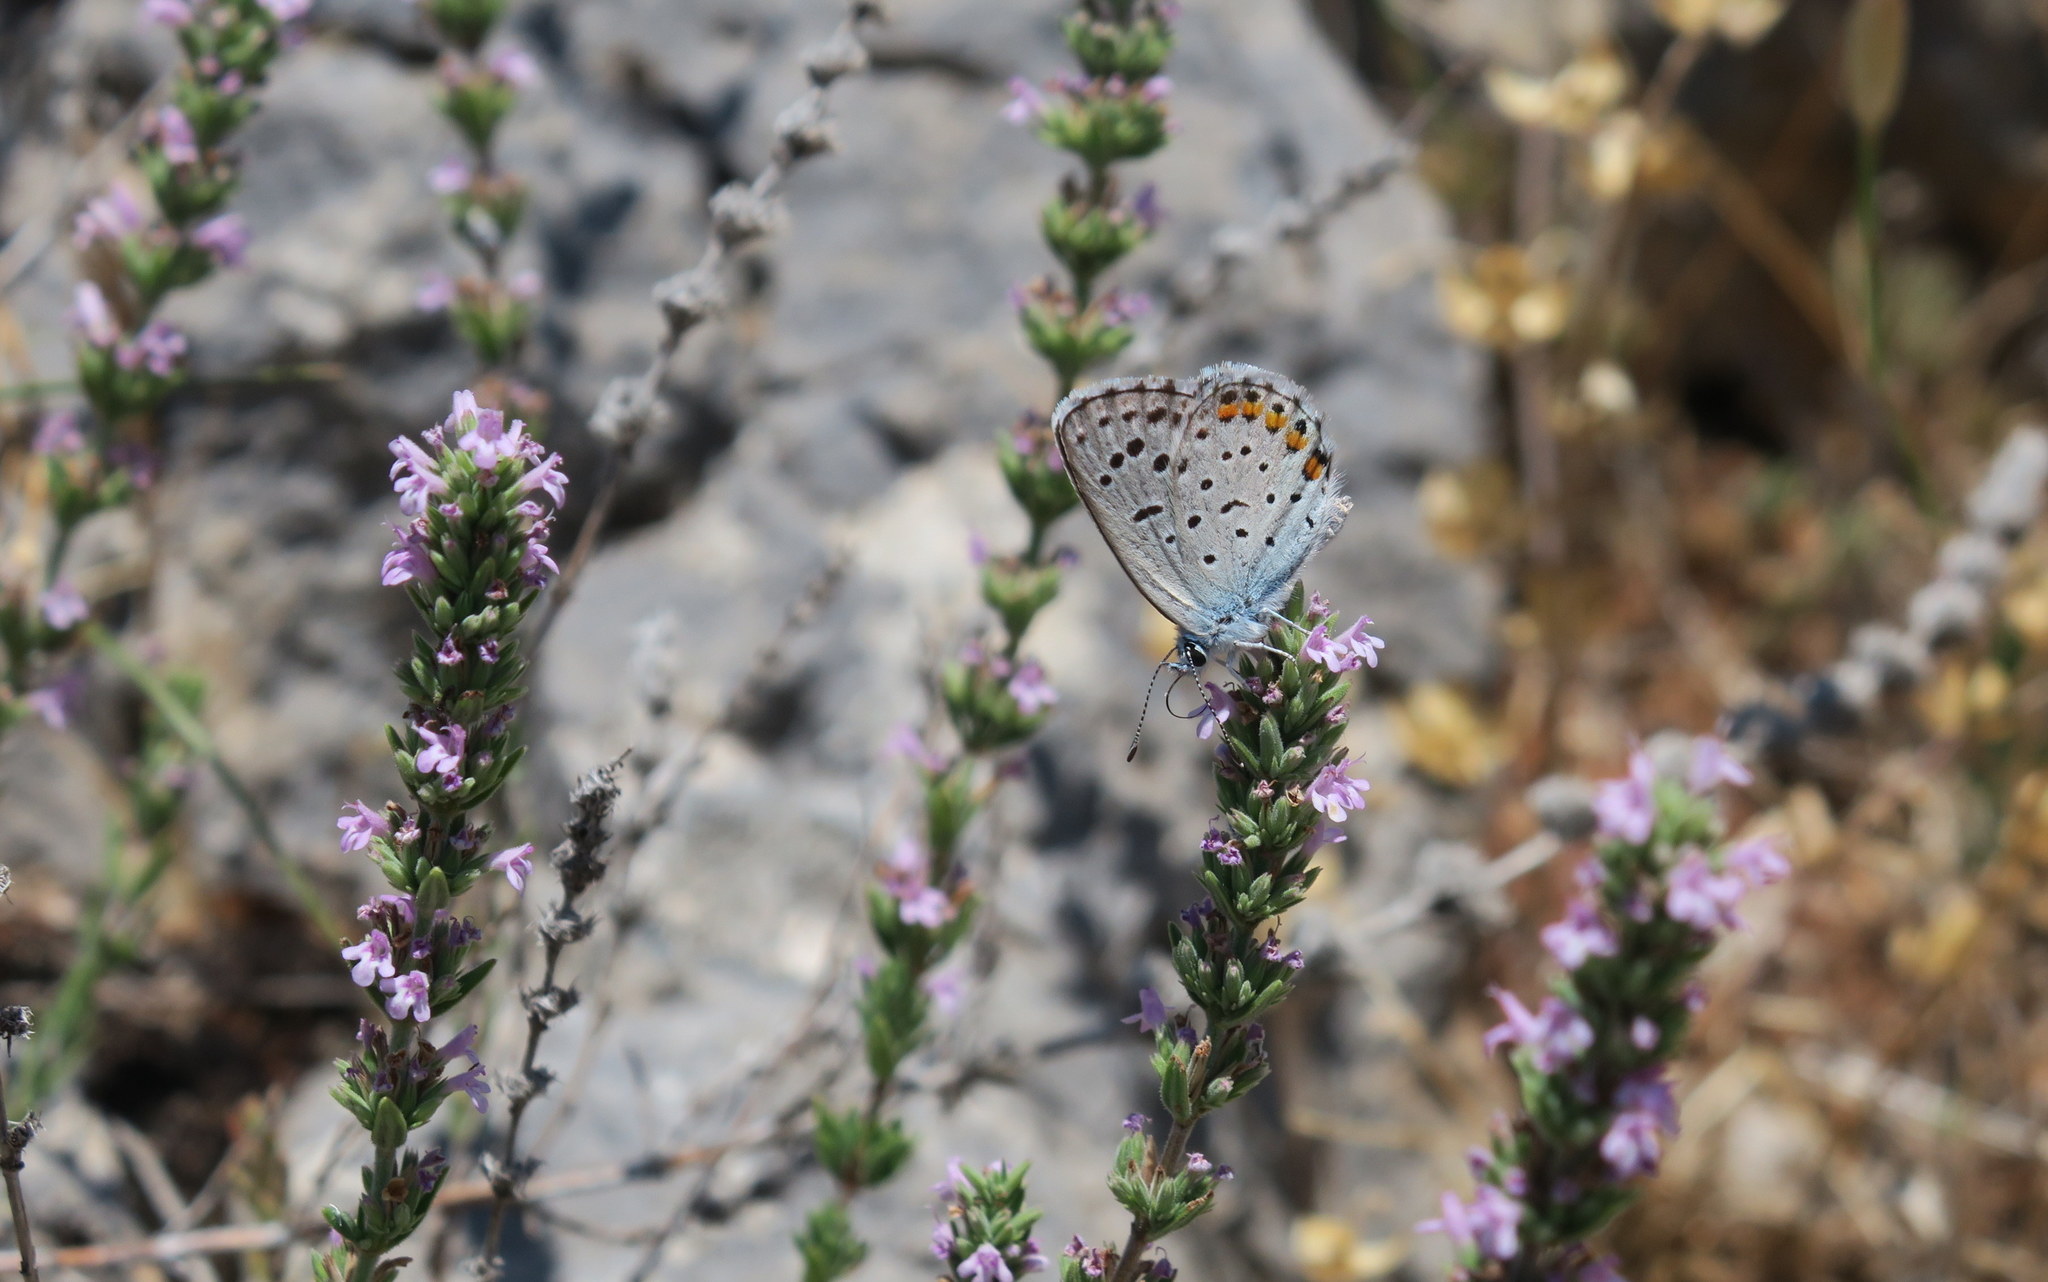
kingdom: Animalia
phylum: Arthropoda
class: Insecta
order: Lepidoptera
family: Lycaenidae
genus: Pseudophilotes
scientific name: Pseudophilotes baton
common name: Baton blue
